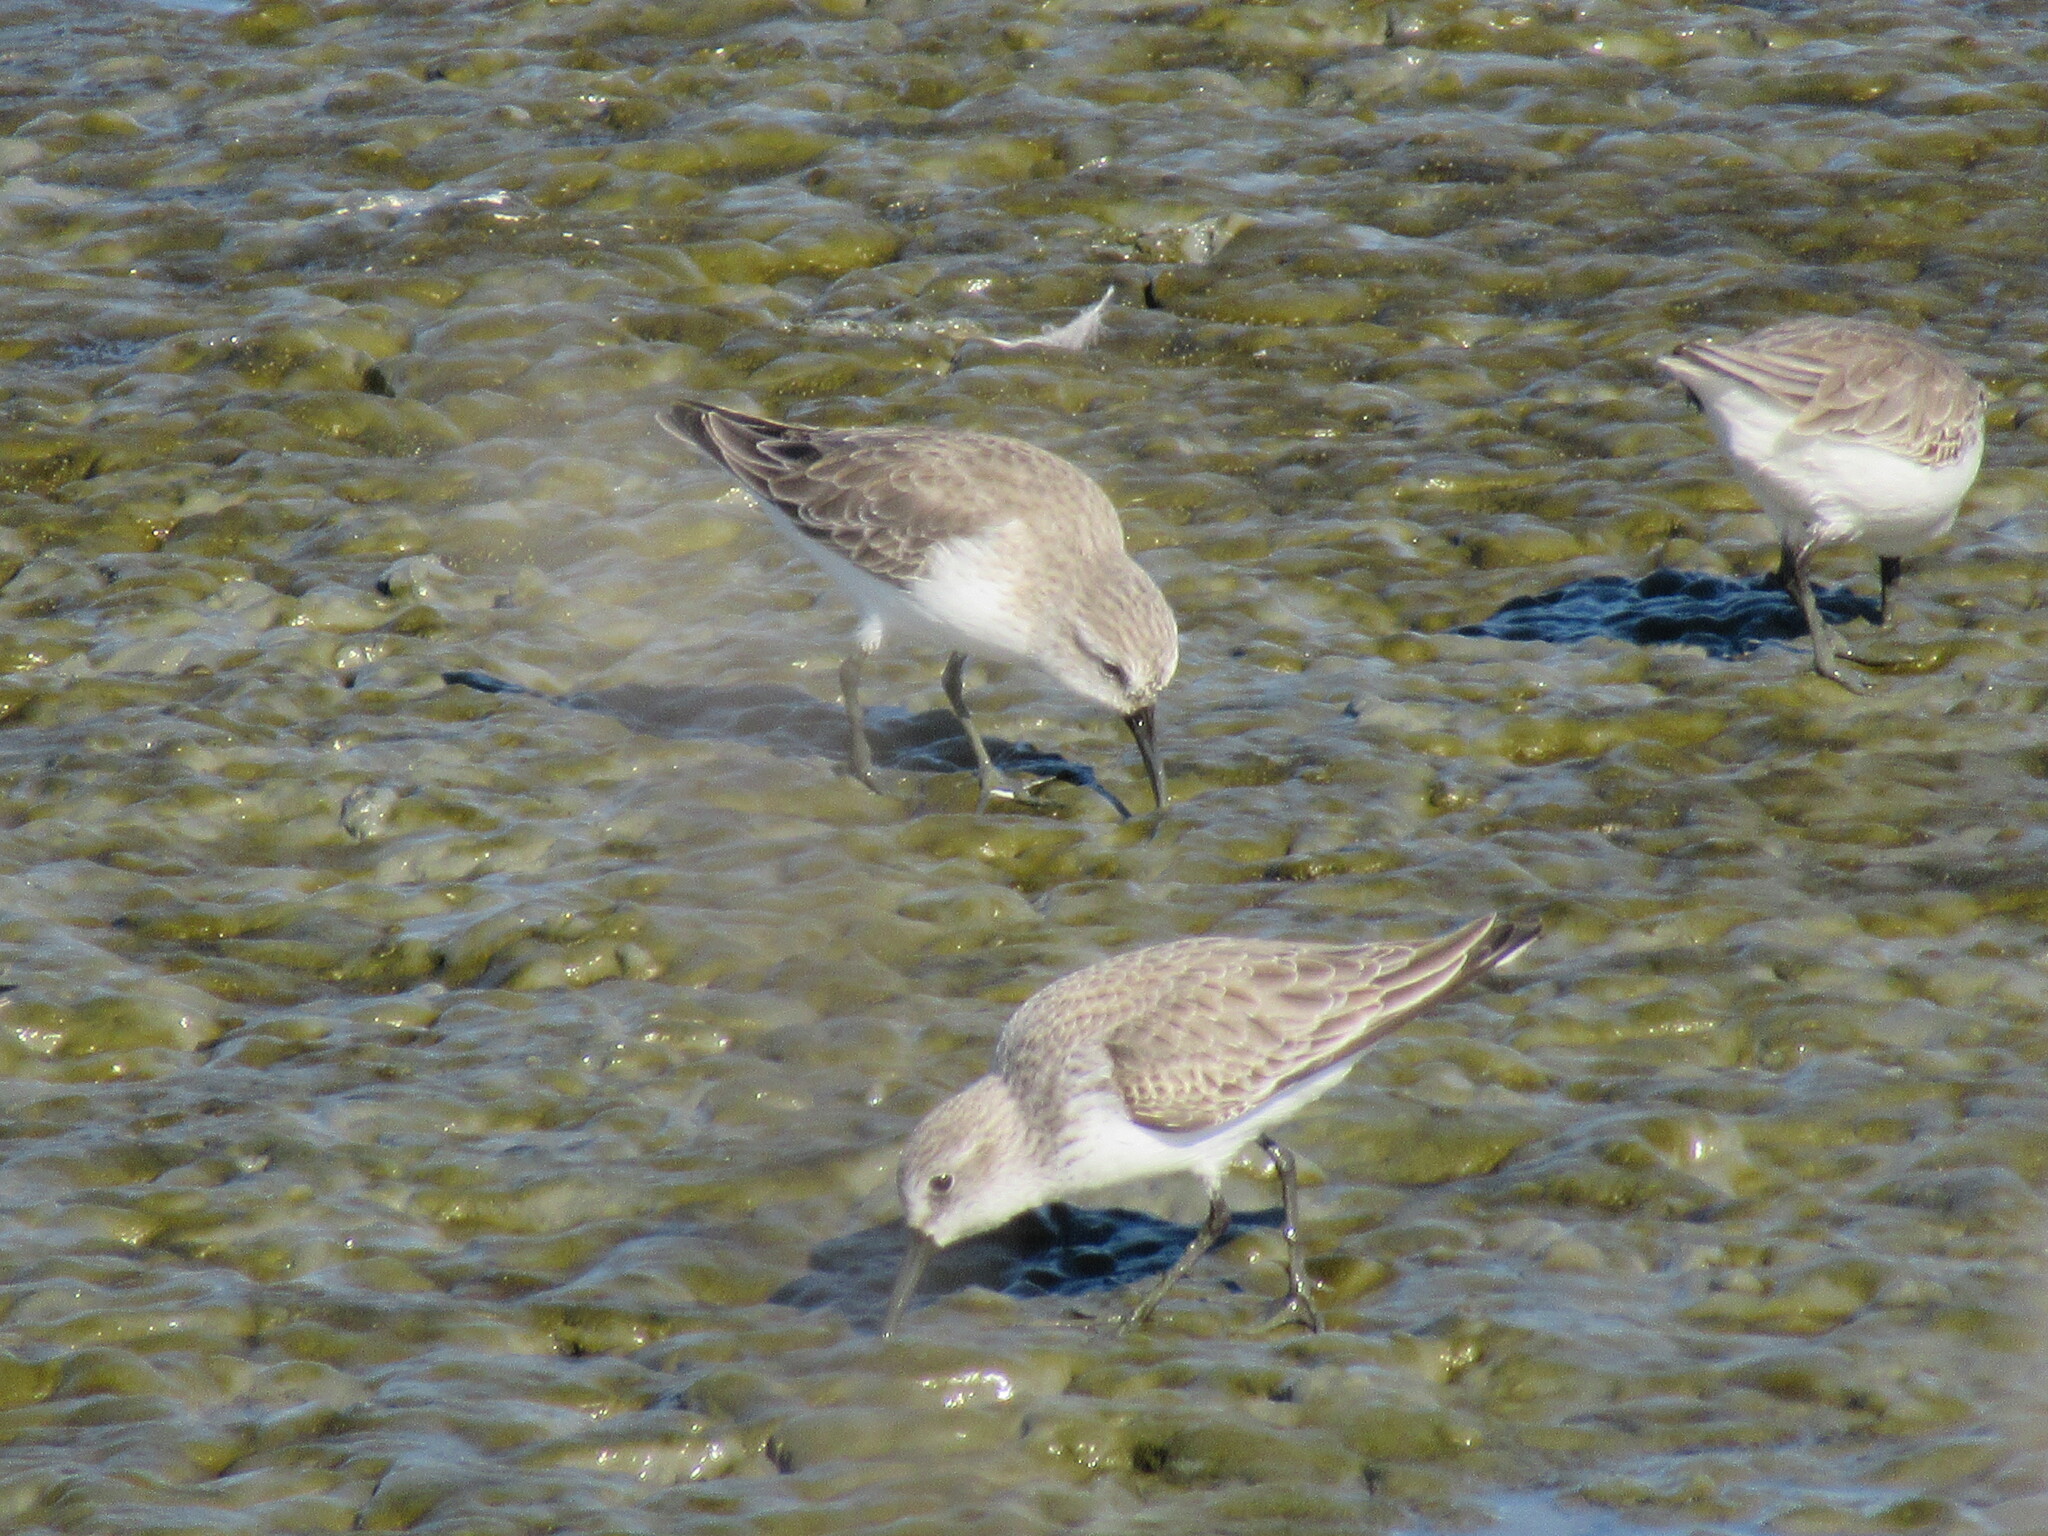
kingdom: Animalia
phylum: Chordata
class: Aves
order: Charadriiformes
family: Scolopacidae
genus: Calidris
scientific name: Calidris mauri
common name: Western sandpiper
